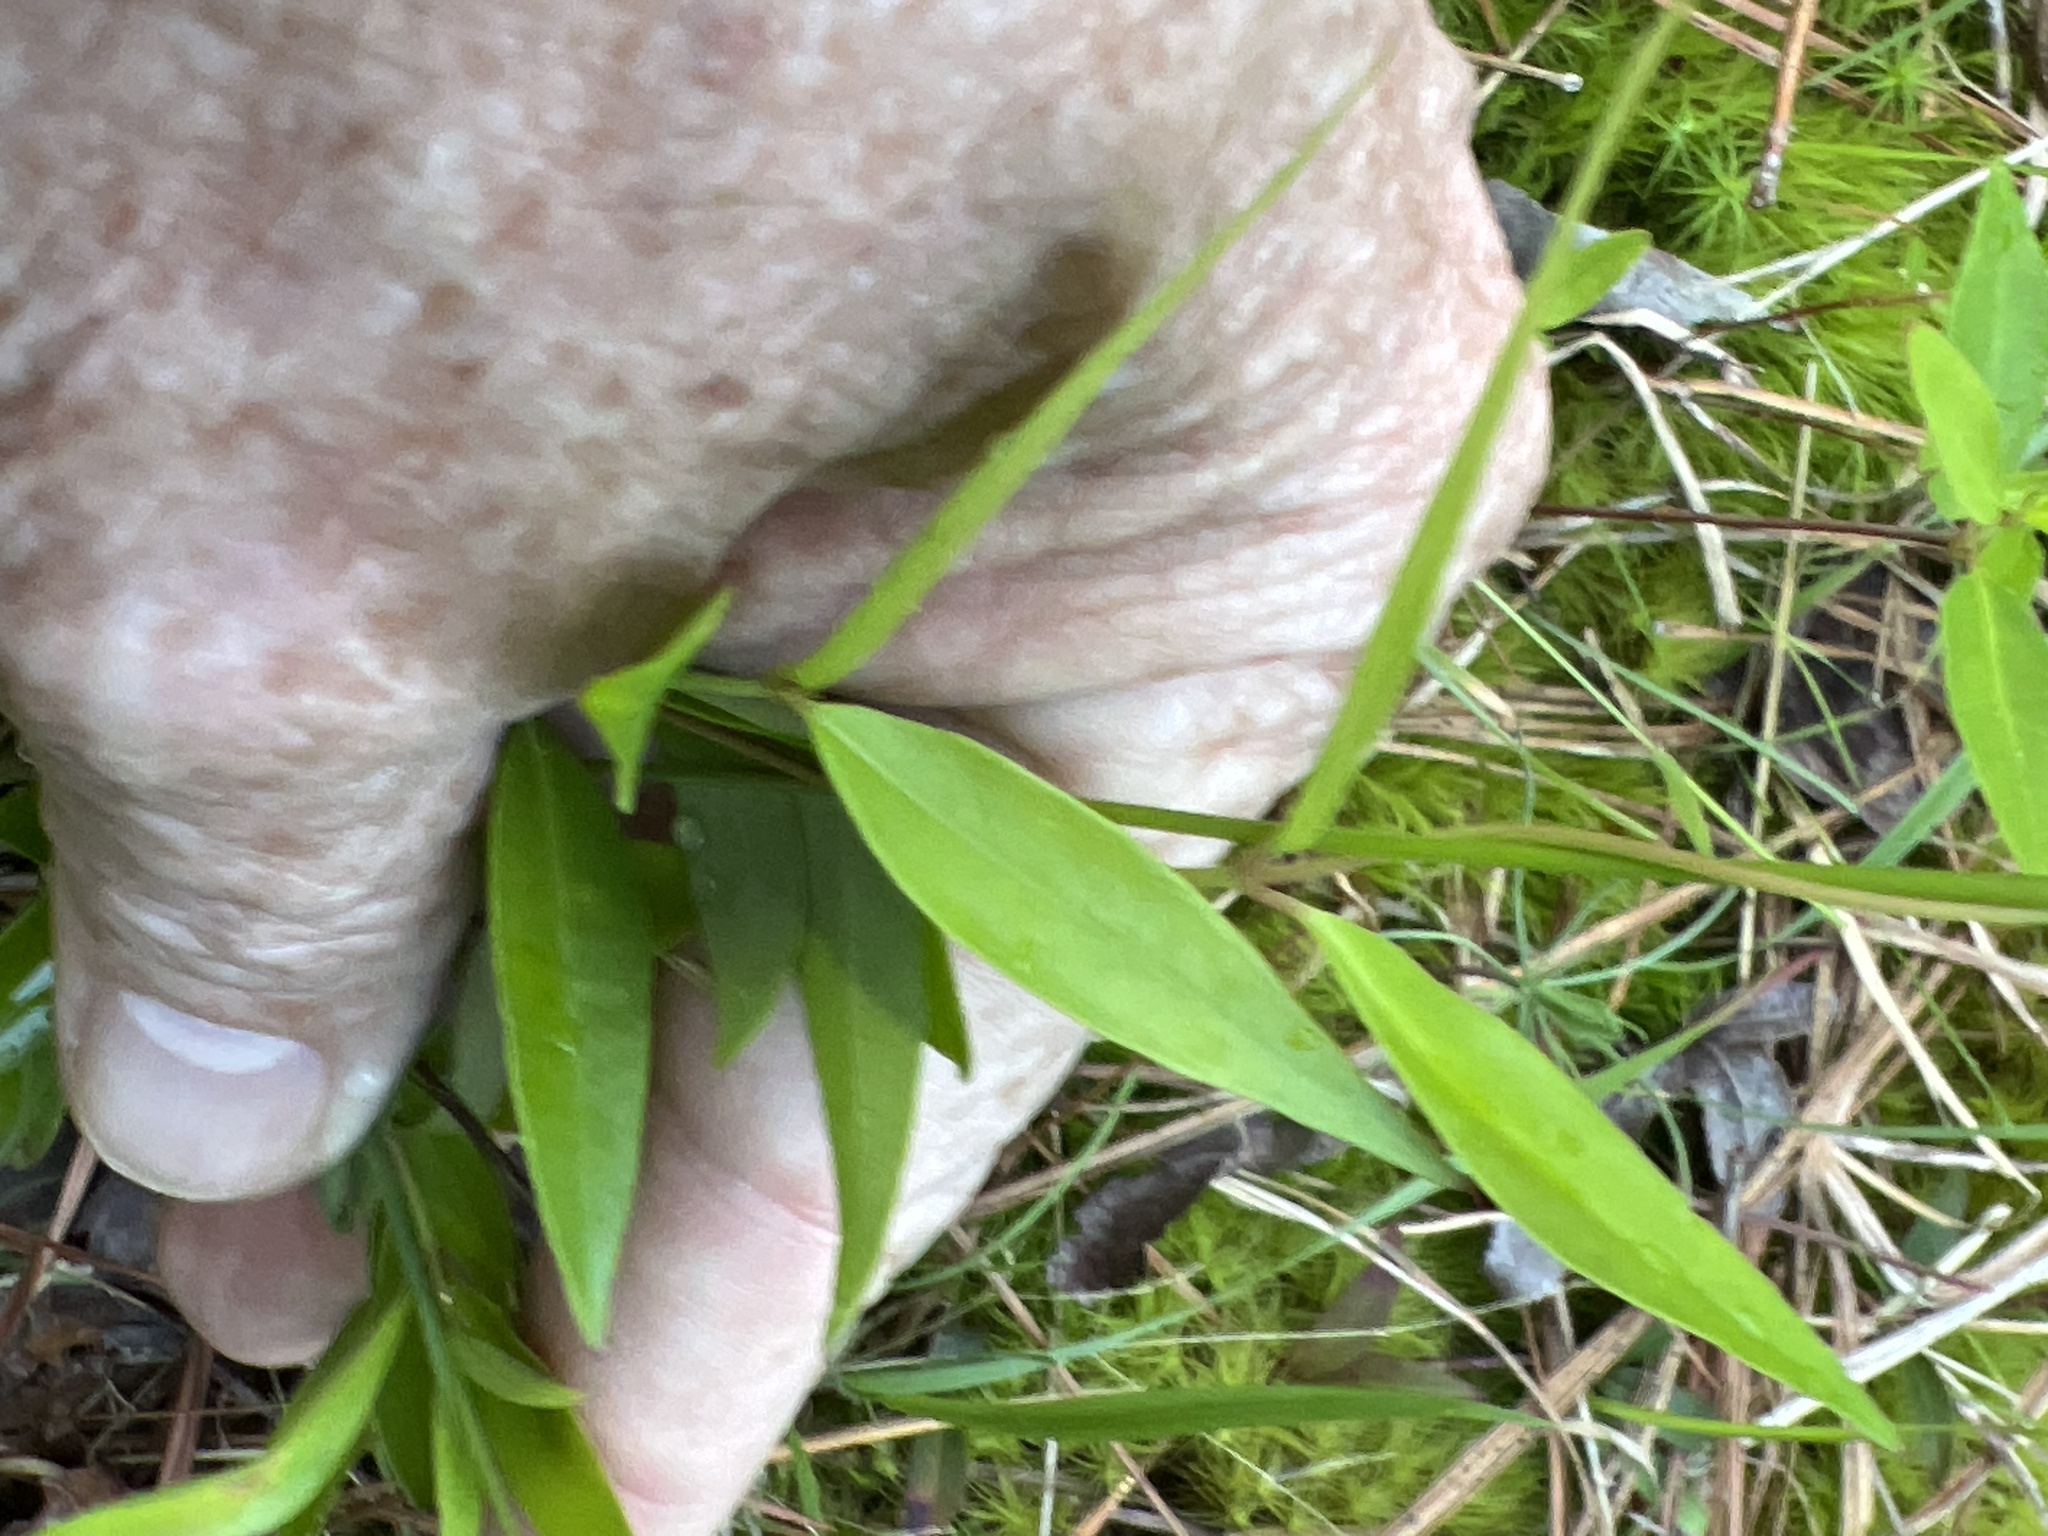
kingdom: Plantae
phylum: Tracheophyta
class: Magnoliopsida
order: Gentianales
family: Gelsemiaceae
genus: Gelsemium
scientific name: Gelsemium sempervirens
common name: Carolina-jasmine
